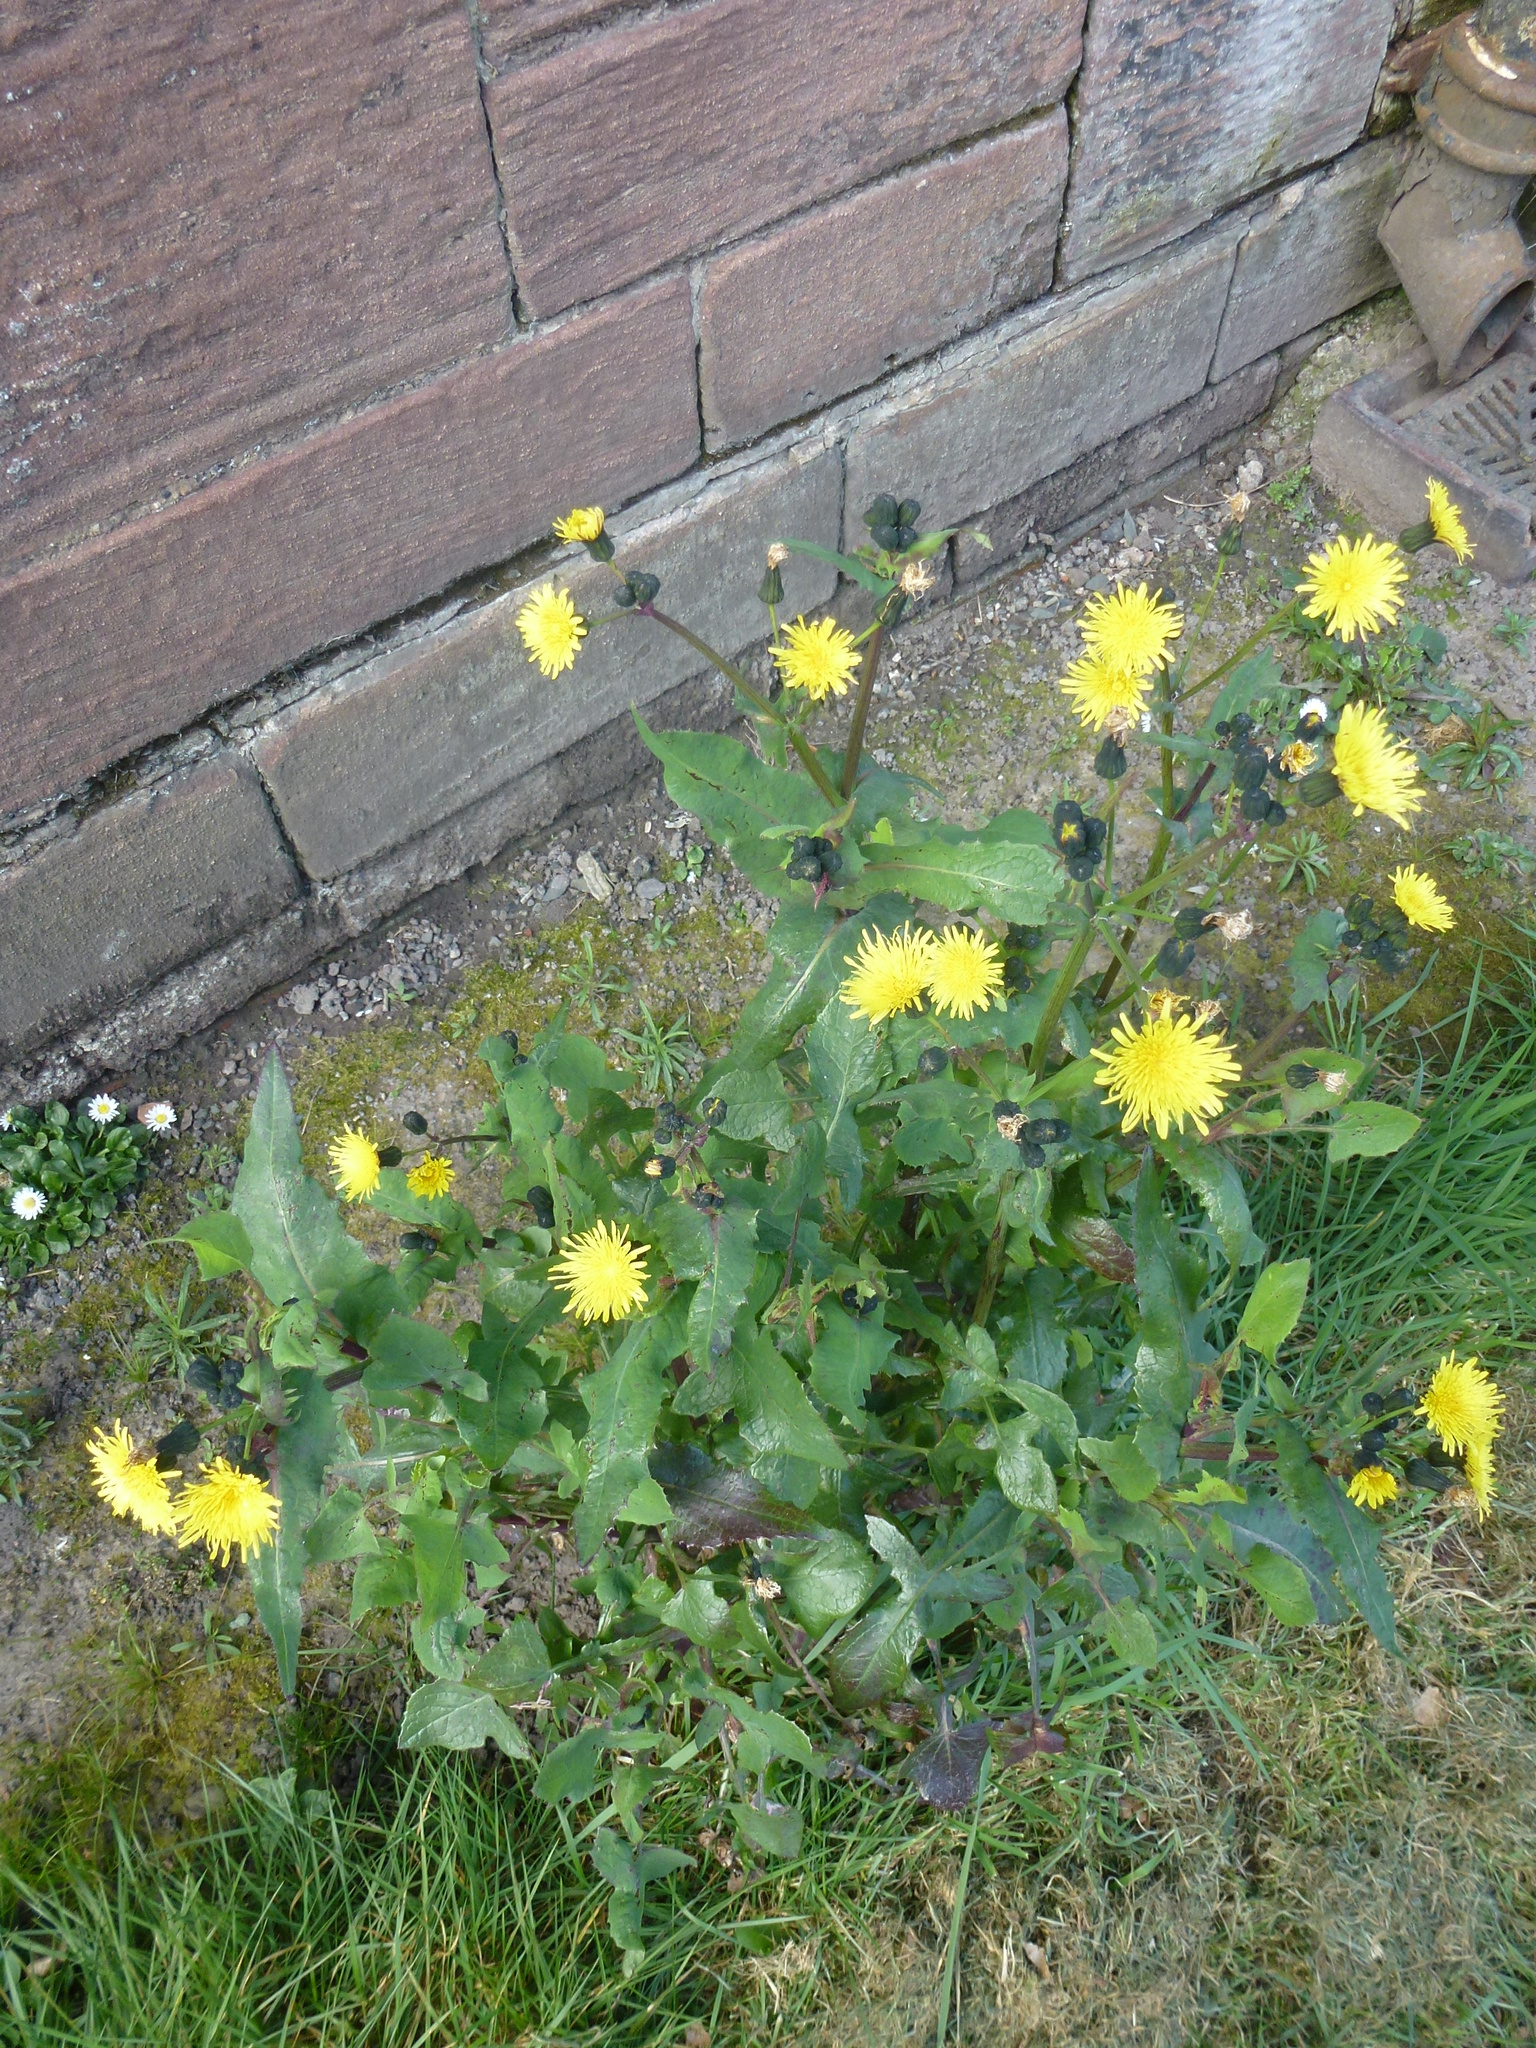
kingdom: Plantae
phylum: Tracheophyta
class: Magnoliopsida
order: Asterales
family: Asteraceae
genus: Sonchus
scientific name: Sonchus oleraceus
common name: Common sowthistle
